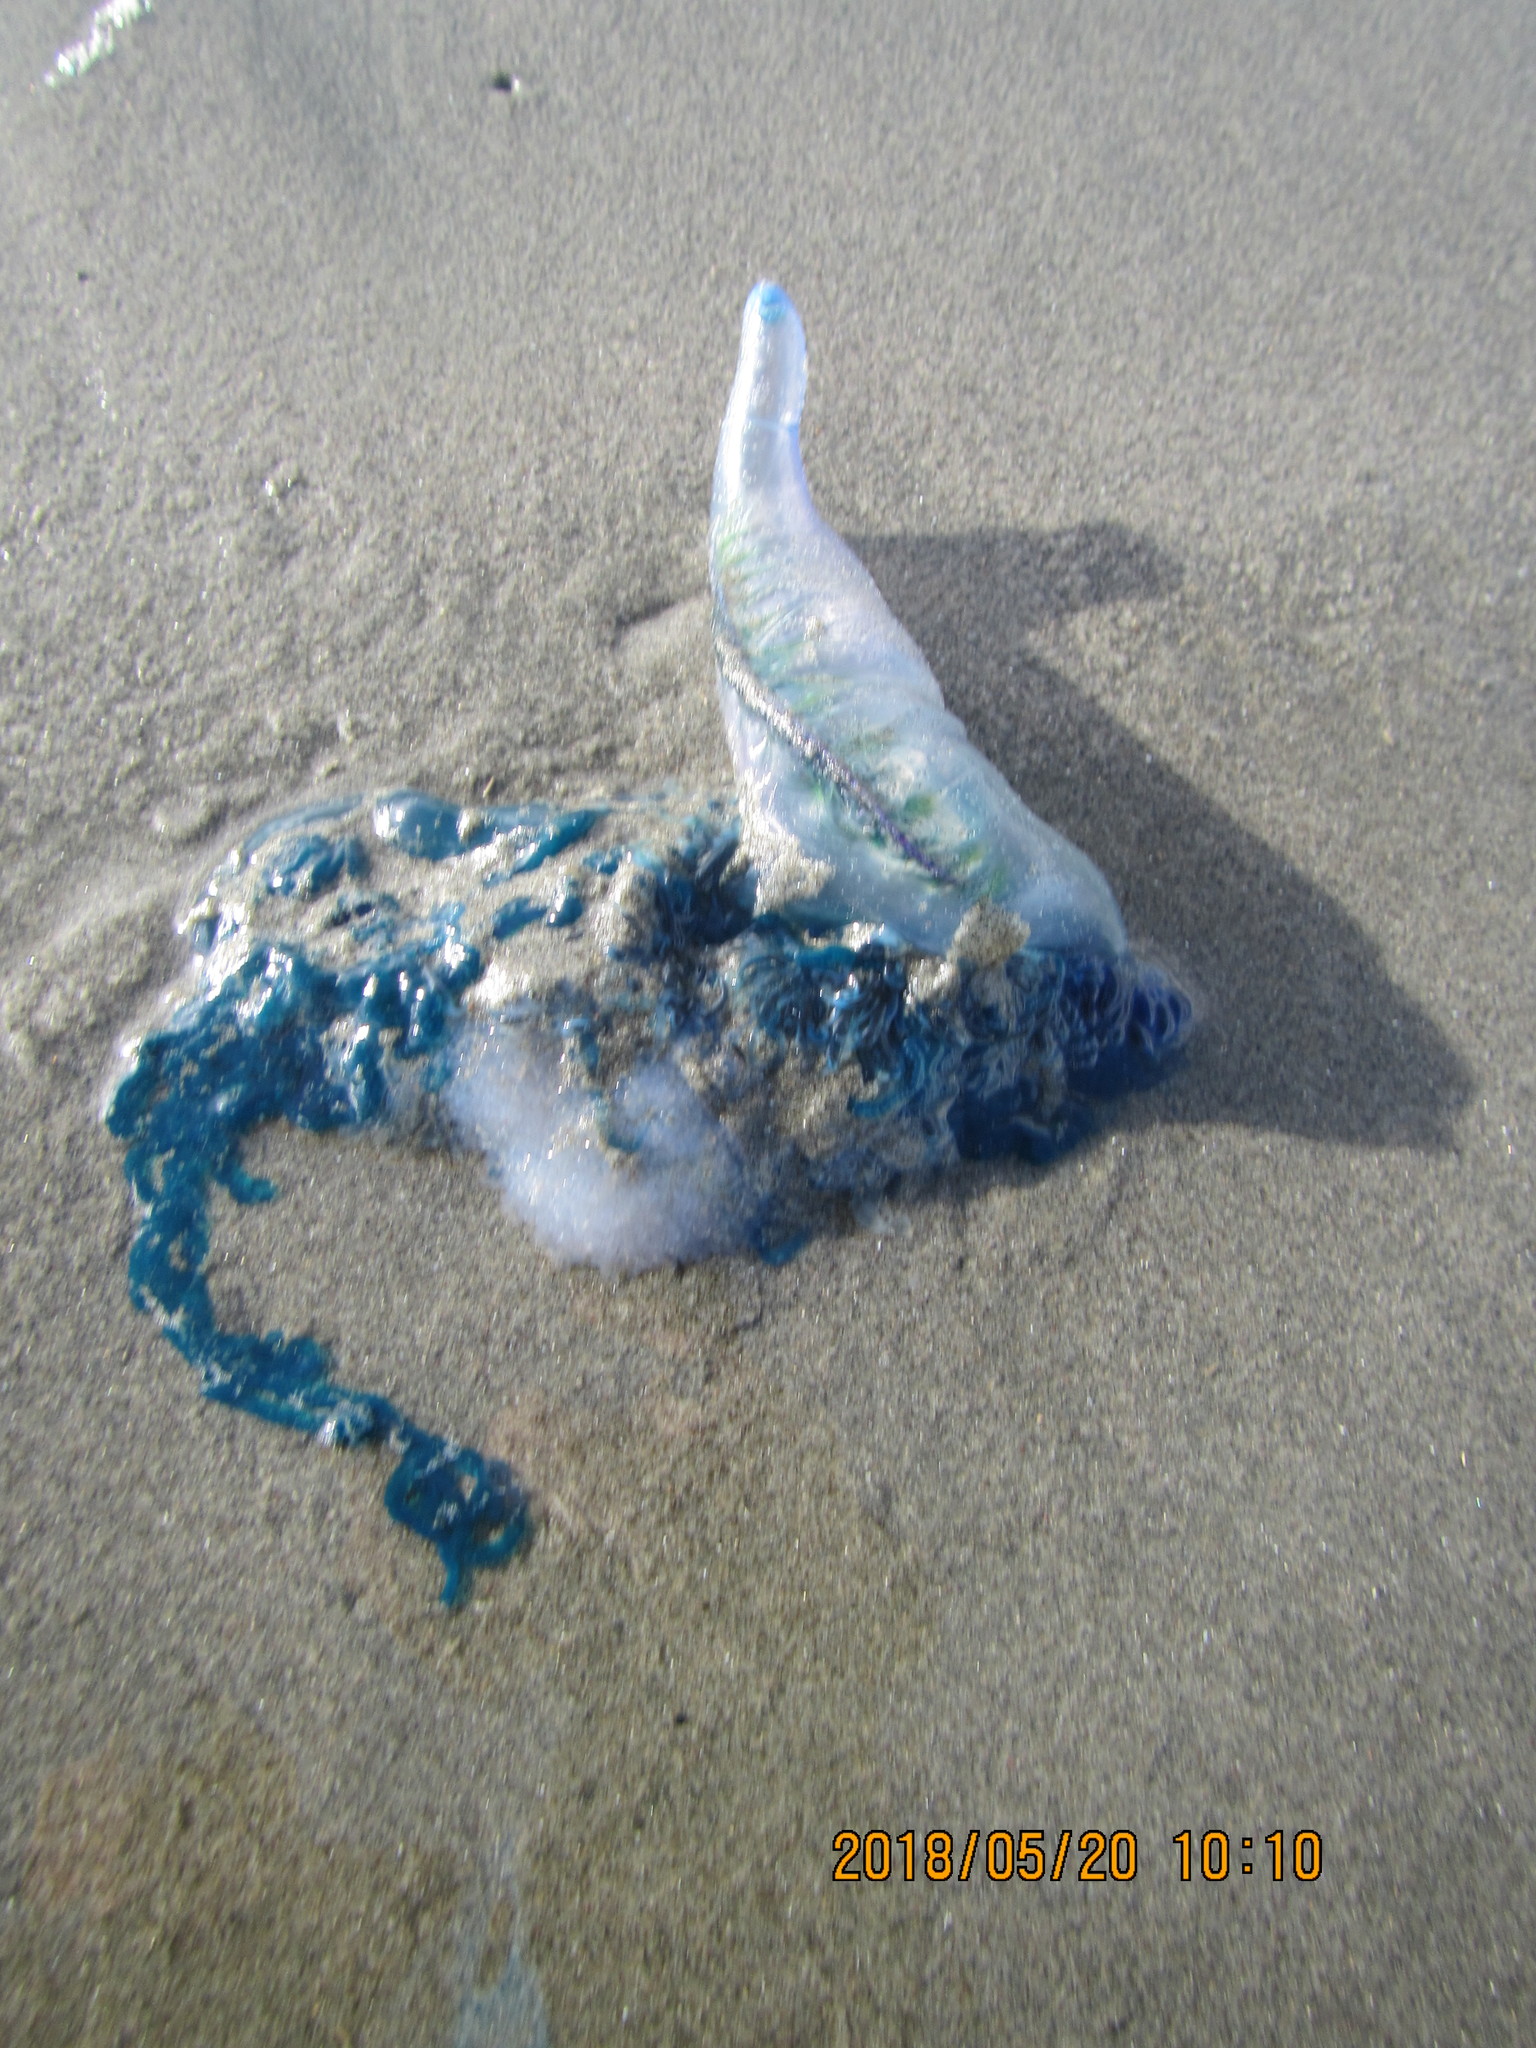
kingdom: Animalia
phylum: Cnidaria
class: Hydrozoa
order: Siphonophorae
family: Physaliidae
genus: Physalia
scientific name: Physalia physalis
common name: Portuguese man-of-war
